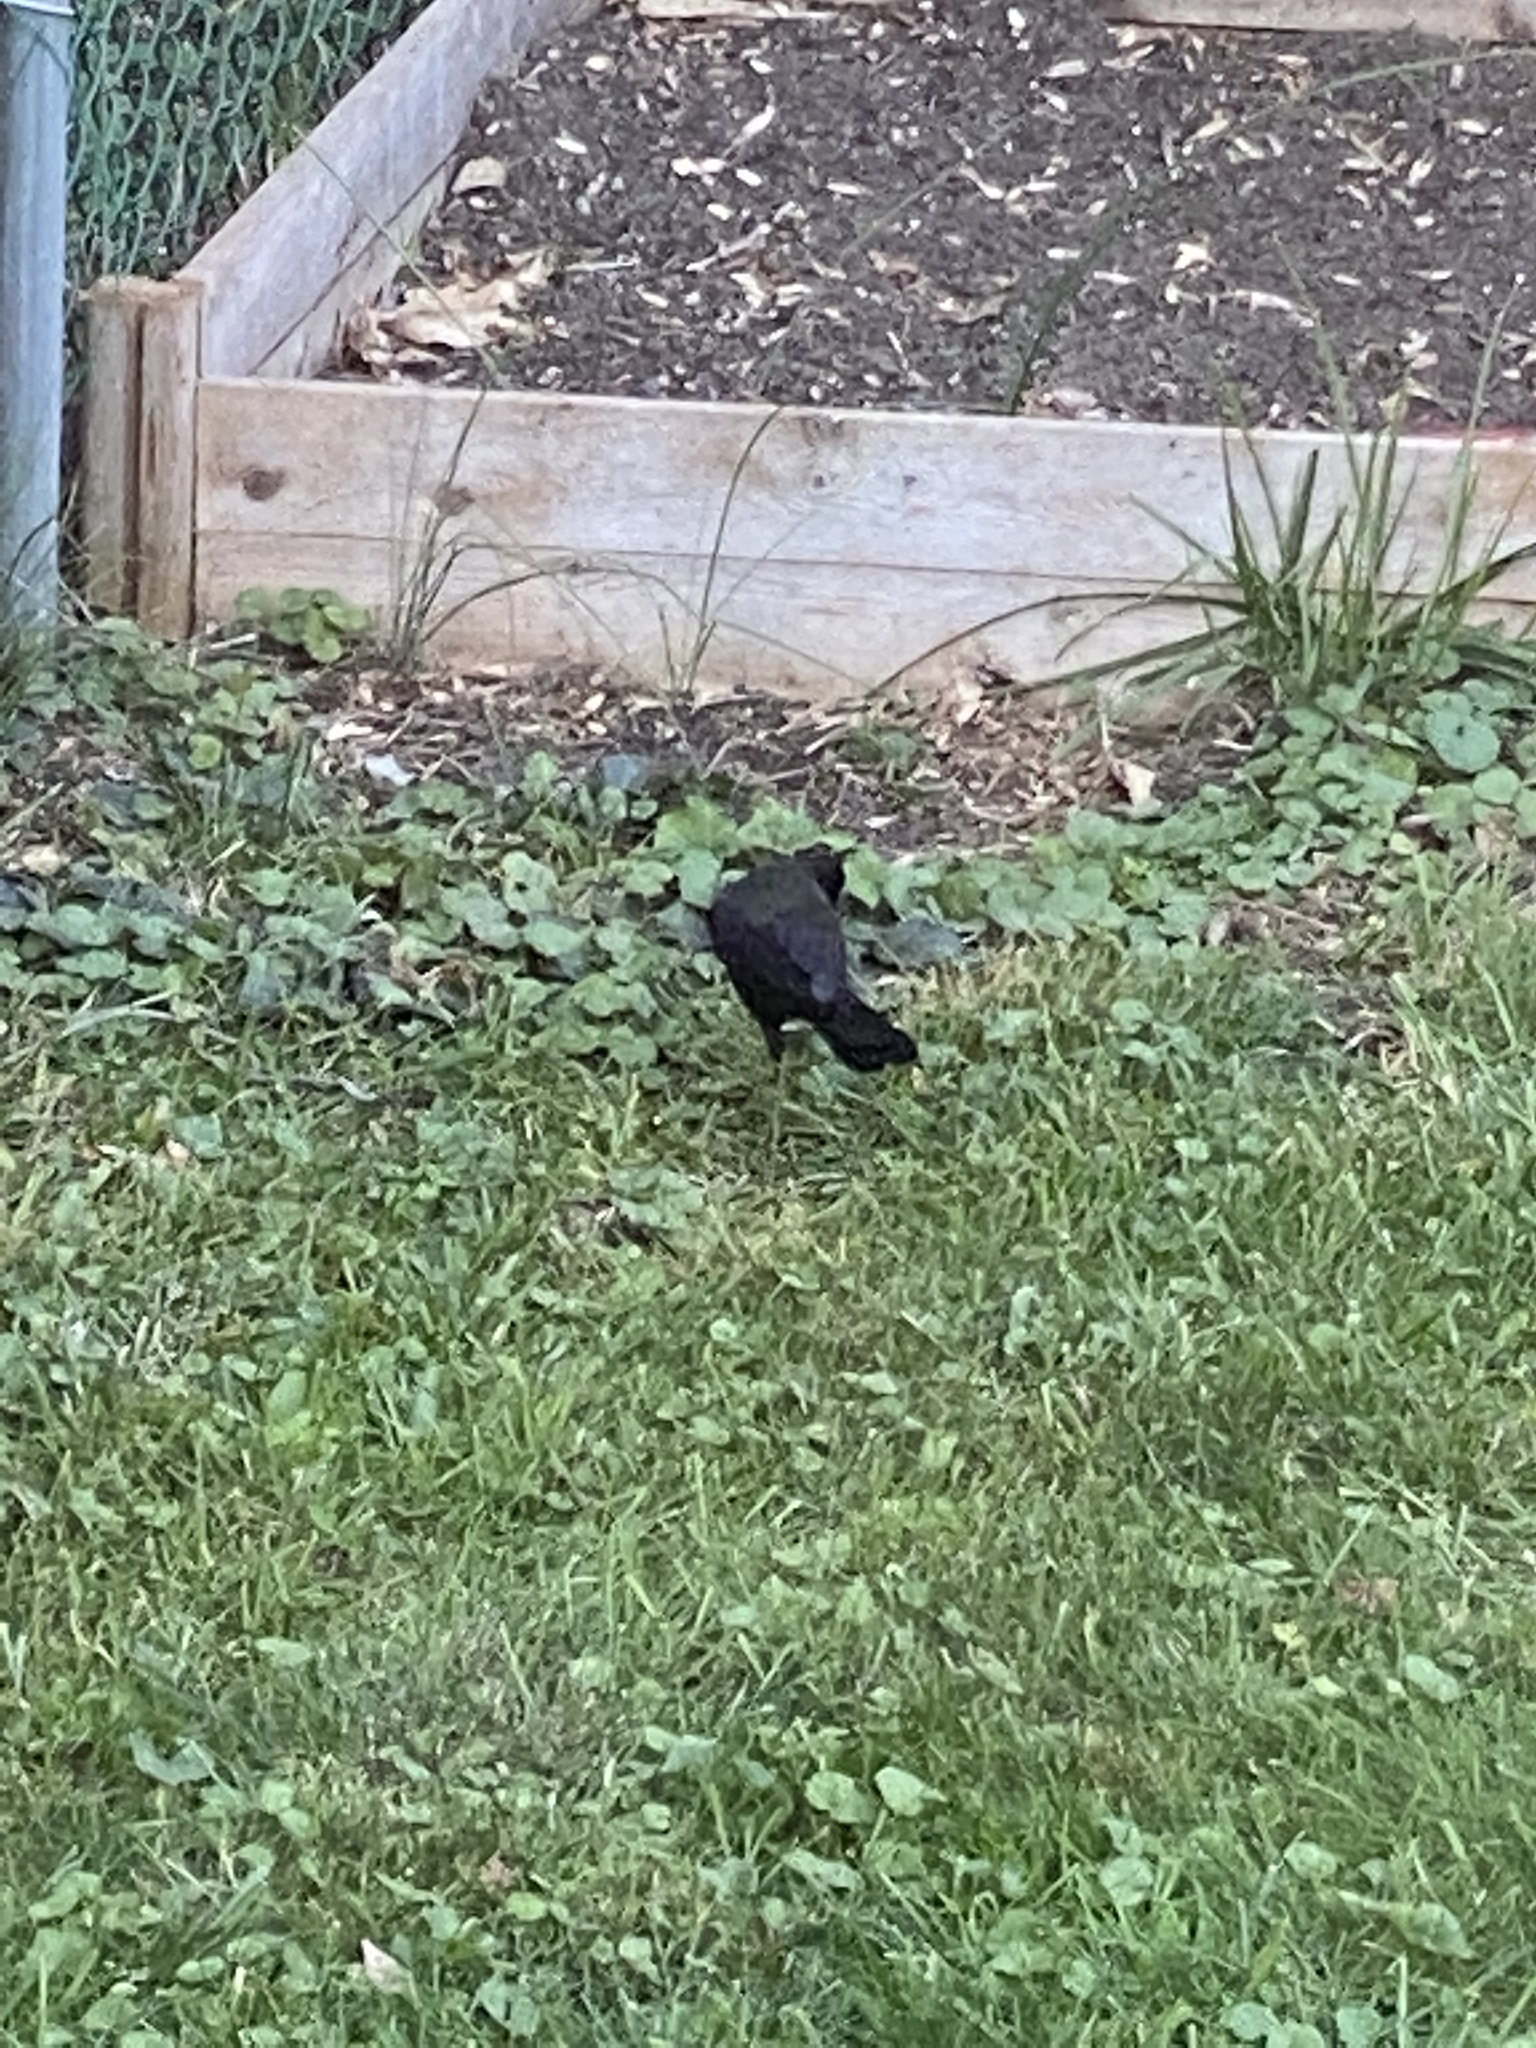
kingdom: Animalia
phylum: Chordata
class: Aves
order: Passeriformes
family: Icteridae
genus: Quiscalus
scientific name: Quiscalus quiscula
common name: Common grackle
